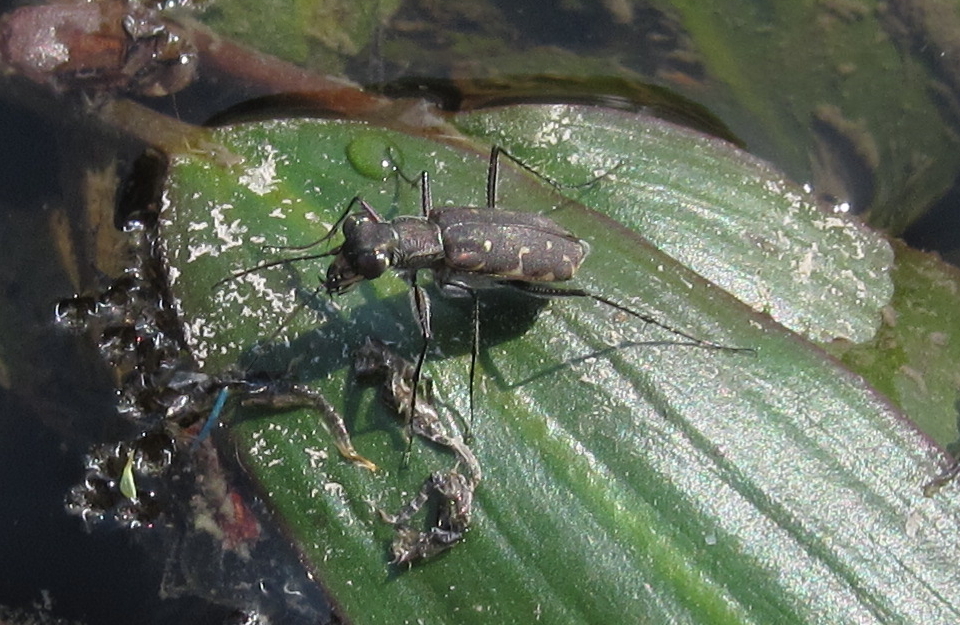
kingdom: Animalia
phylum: Arthropoda
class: Insecta
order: Coleoptera
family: Carabidae
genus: Myriochila
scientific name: Myriochila melancholica
